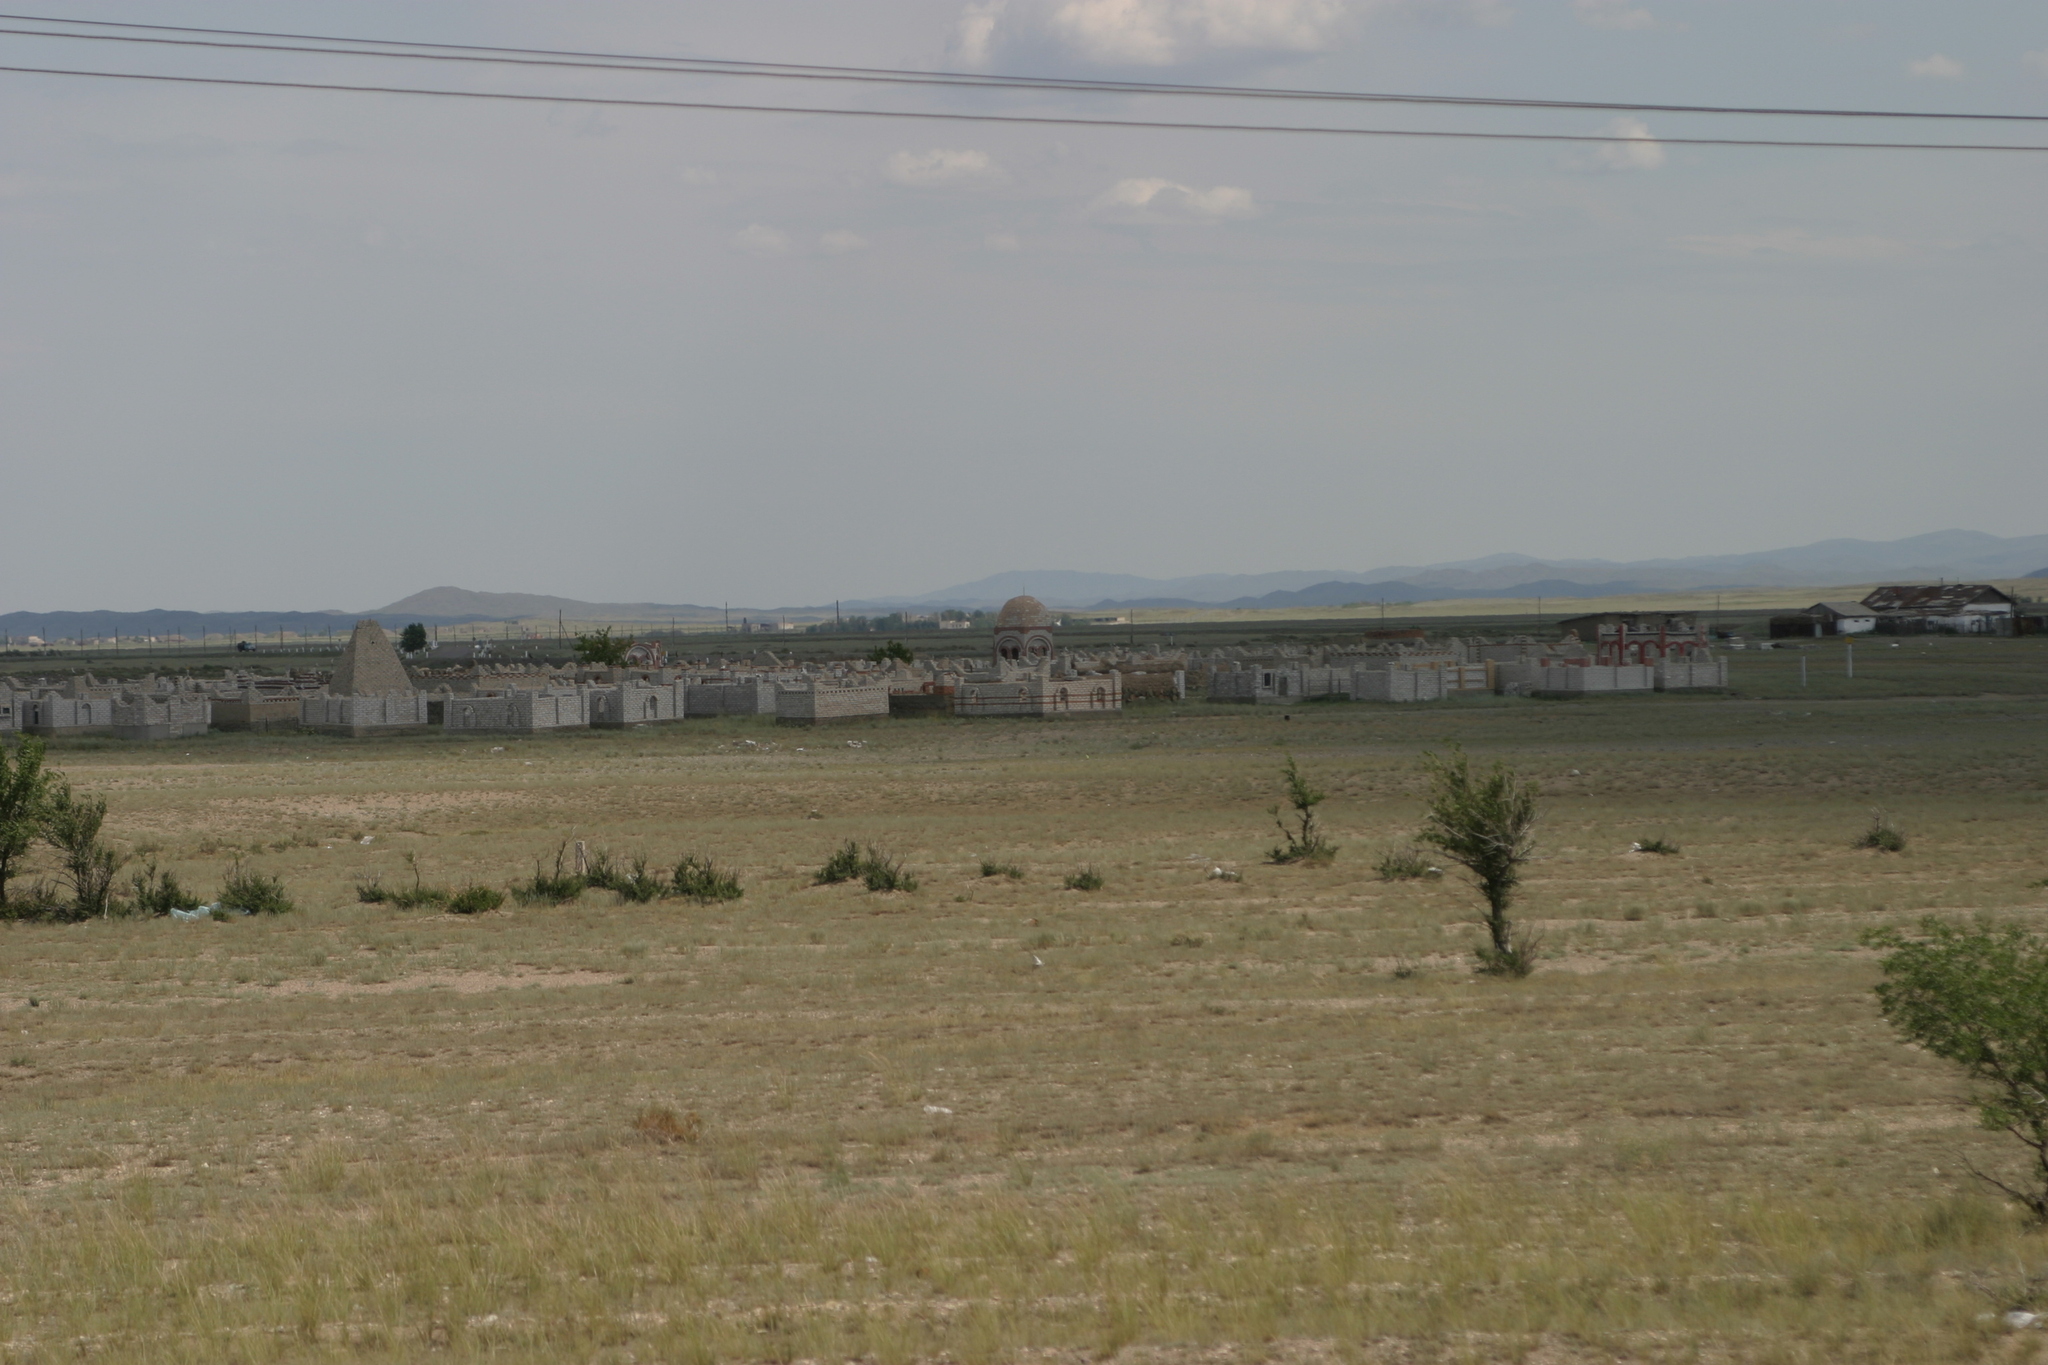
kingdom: Plantae
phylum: Tracheophyta
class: Magnoliopsida
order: Rosales
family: Ulmaceae
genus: Ulmus
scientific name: Ulmus pumila
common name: Siberian elm
